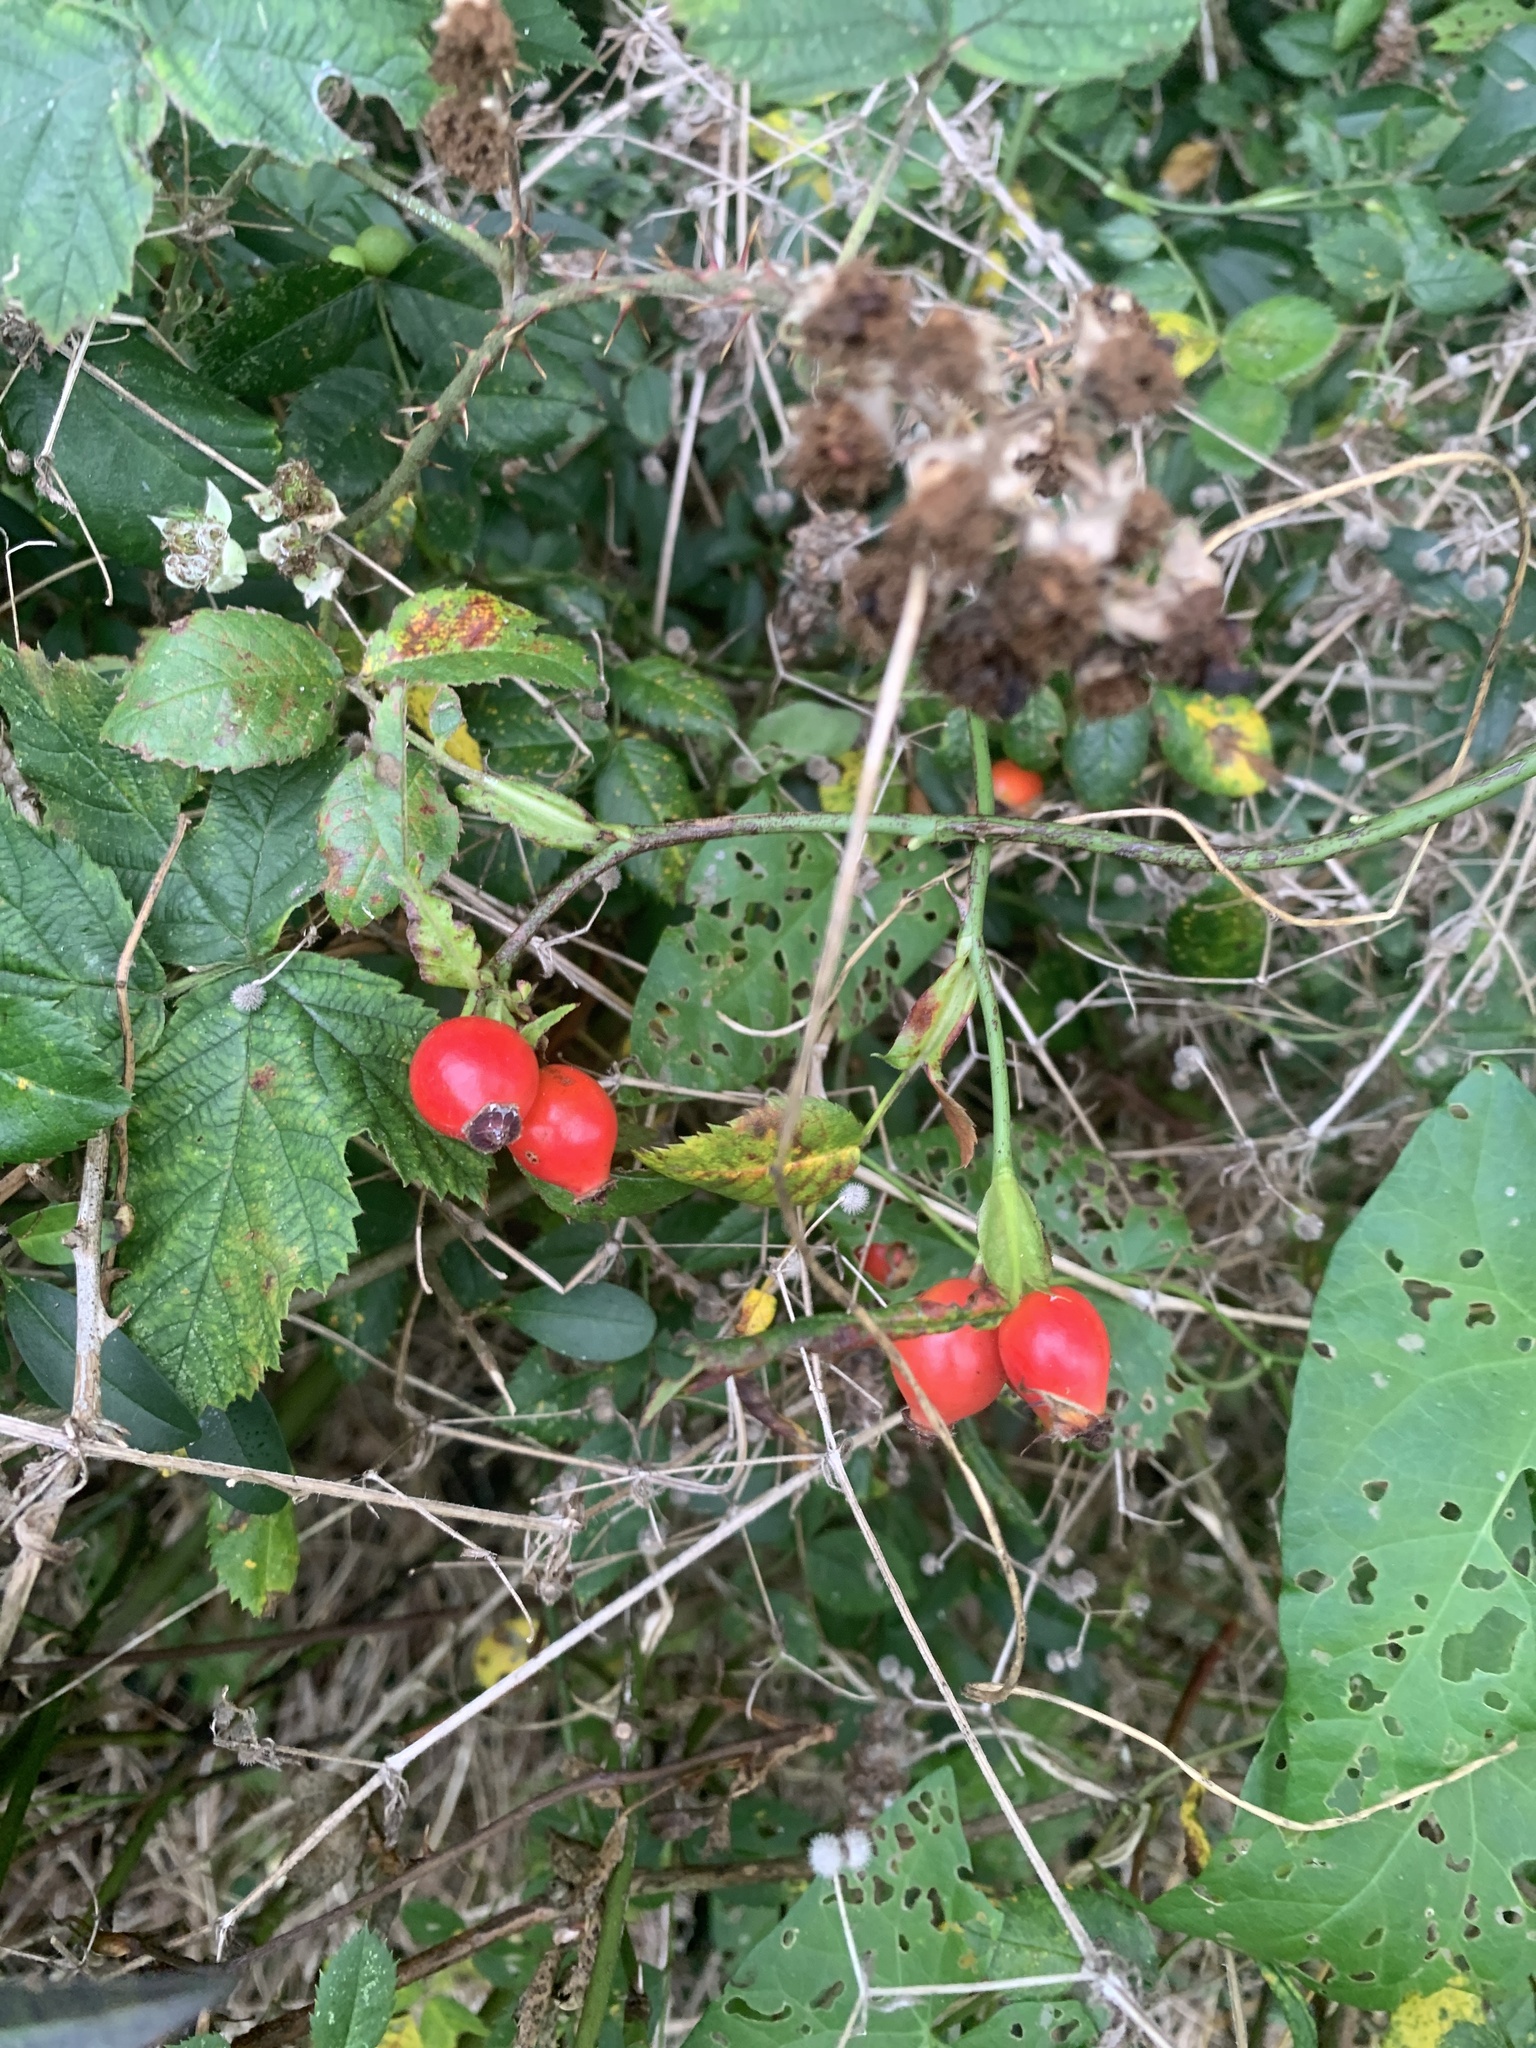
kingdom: Plantae
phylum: Tracheophyta
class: Magnoliopsida
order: Rosales
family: Rosaceae
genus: Rosa
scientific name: Rosa canina
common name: Dog rose
